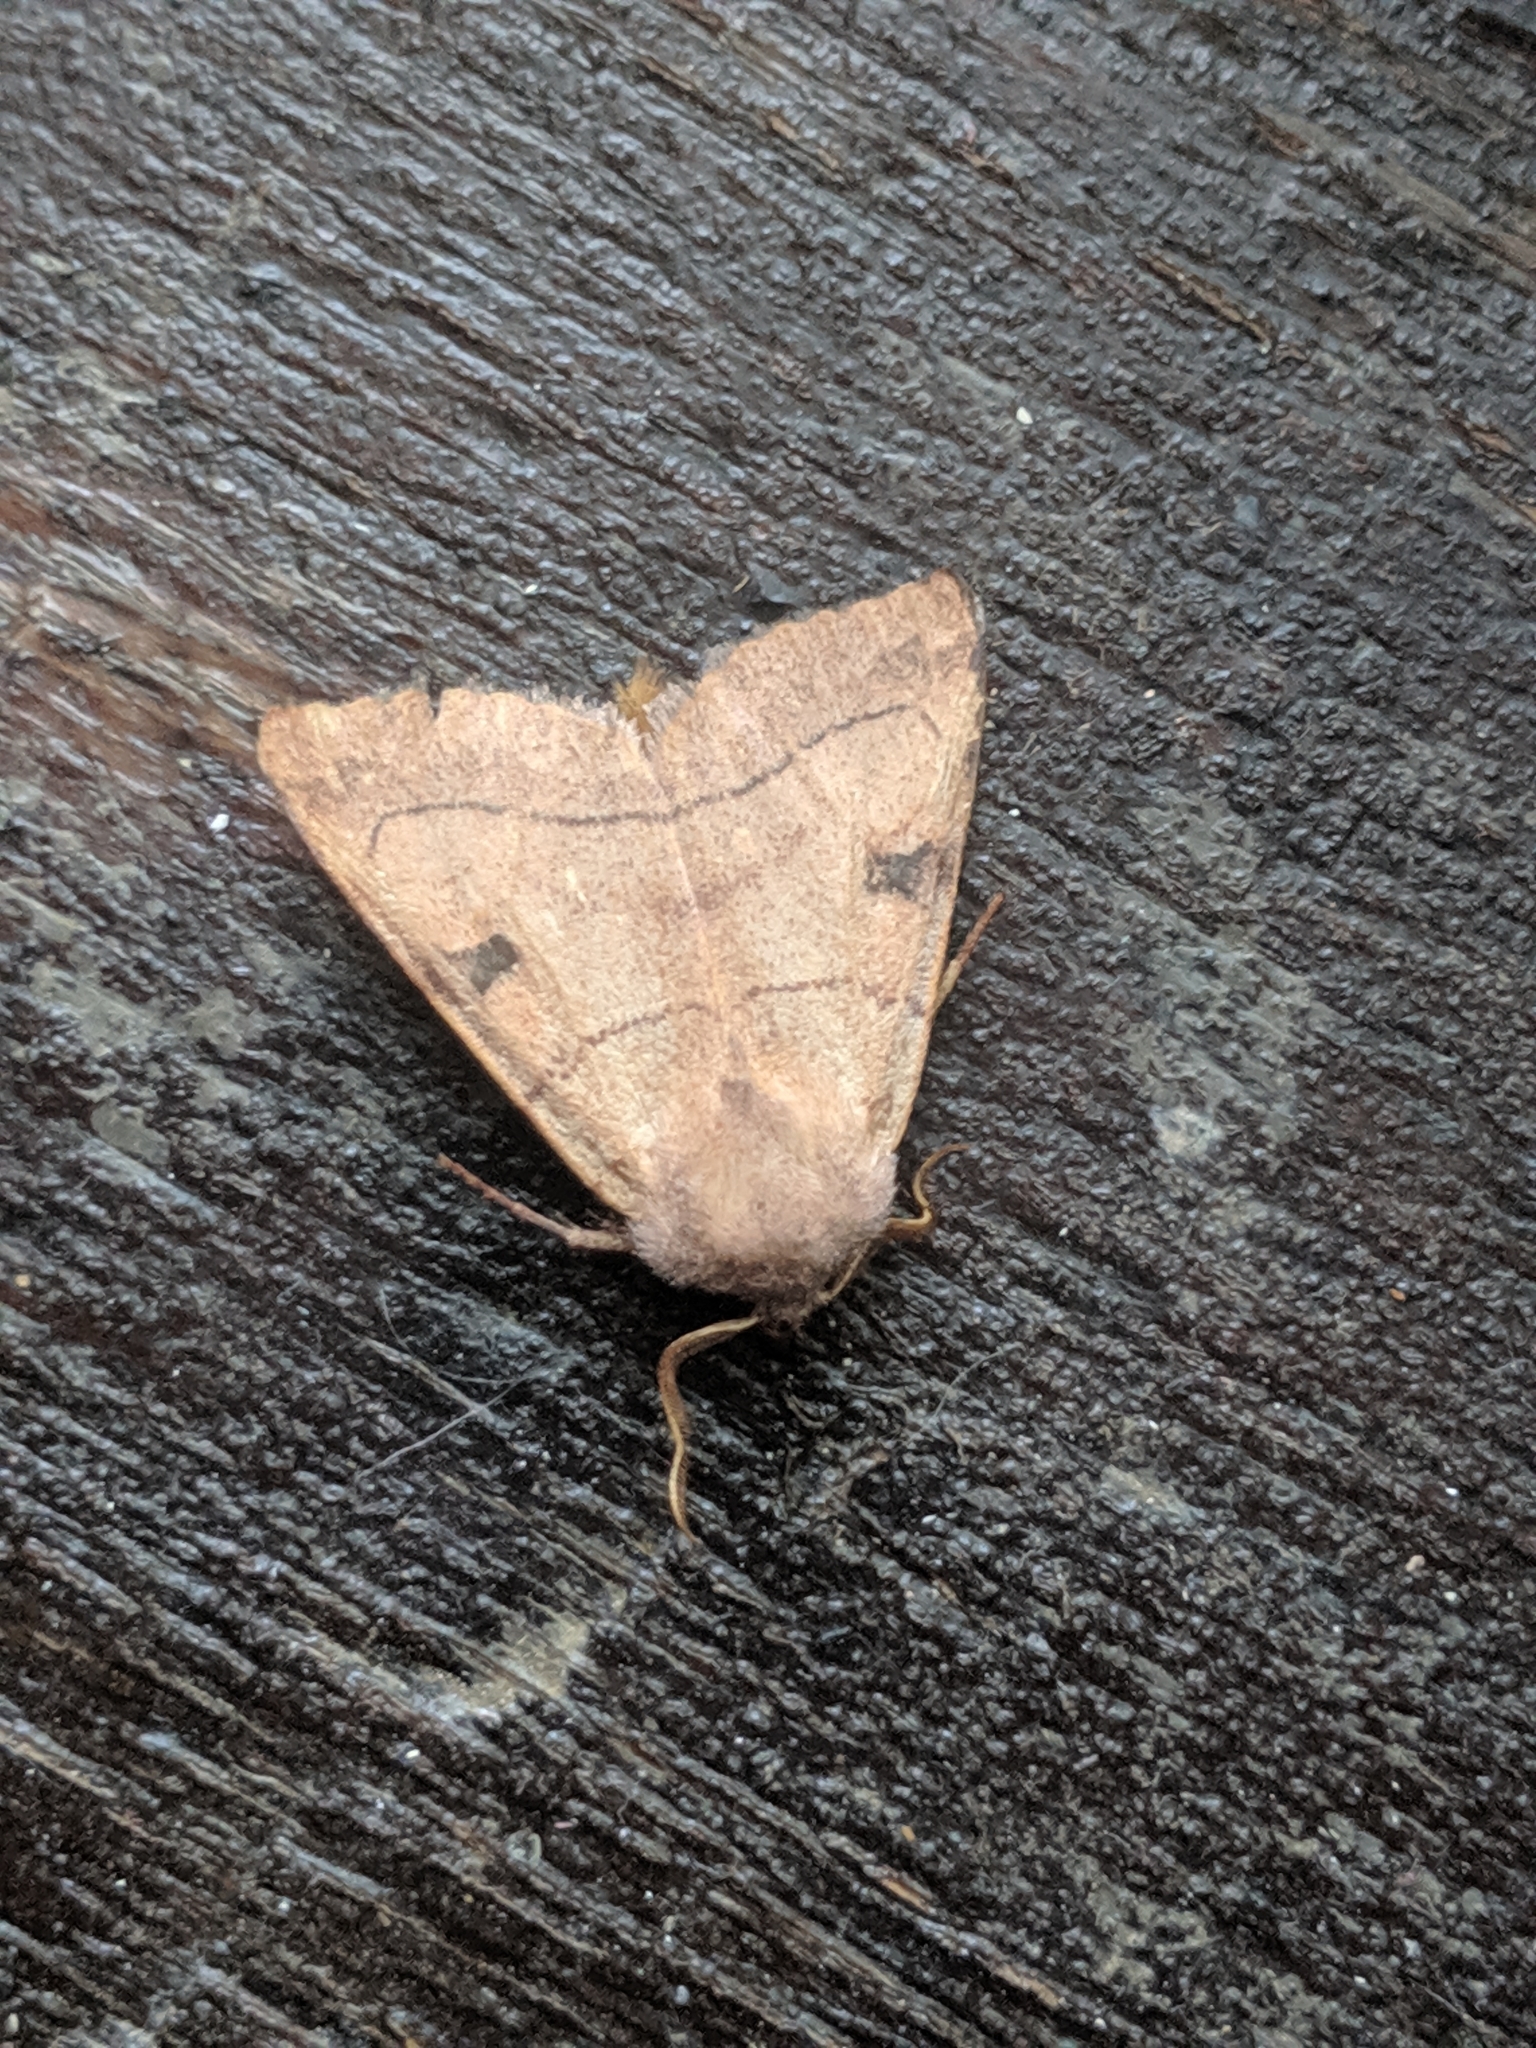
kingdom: Animalia
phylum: Arthropoda
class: Insecta
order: Lepidoptera
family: Noctuidae
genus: Choephora
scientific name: Choephora fungorum
